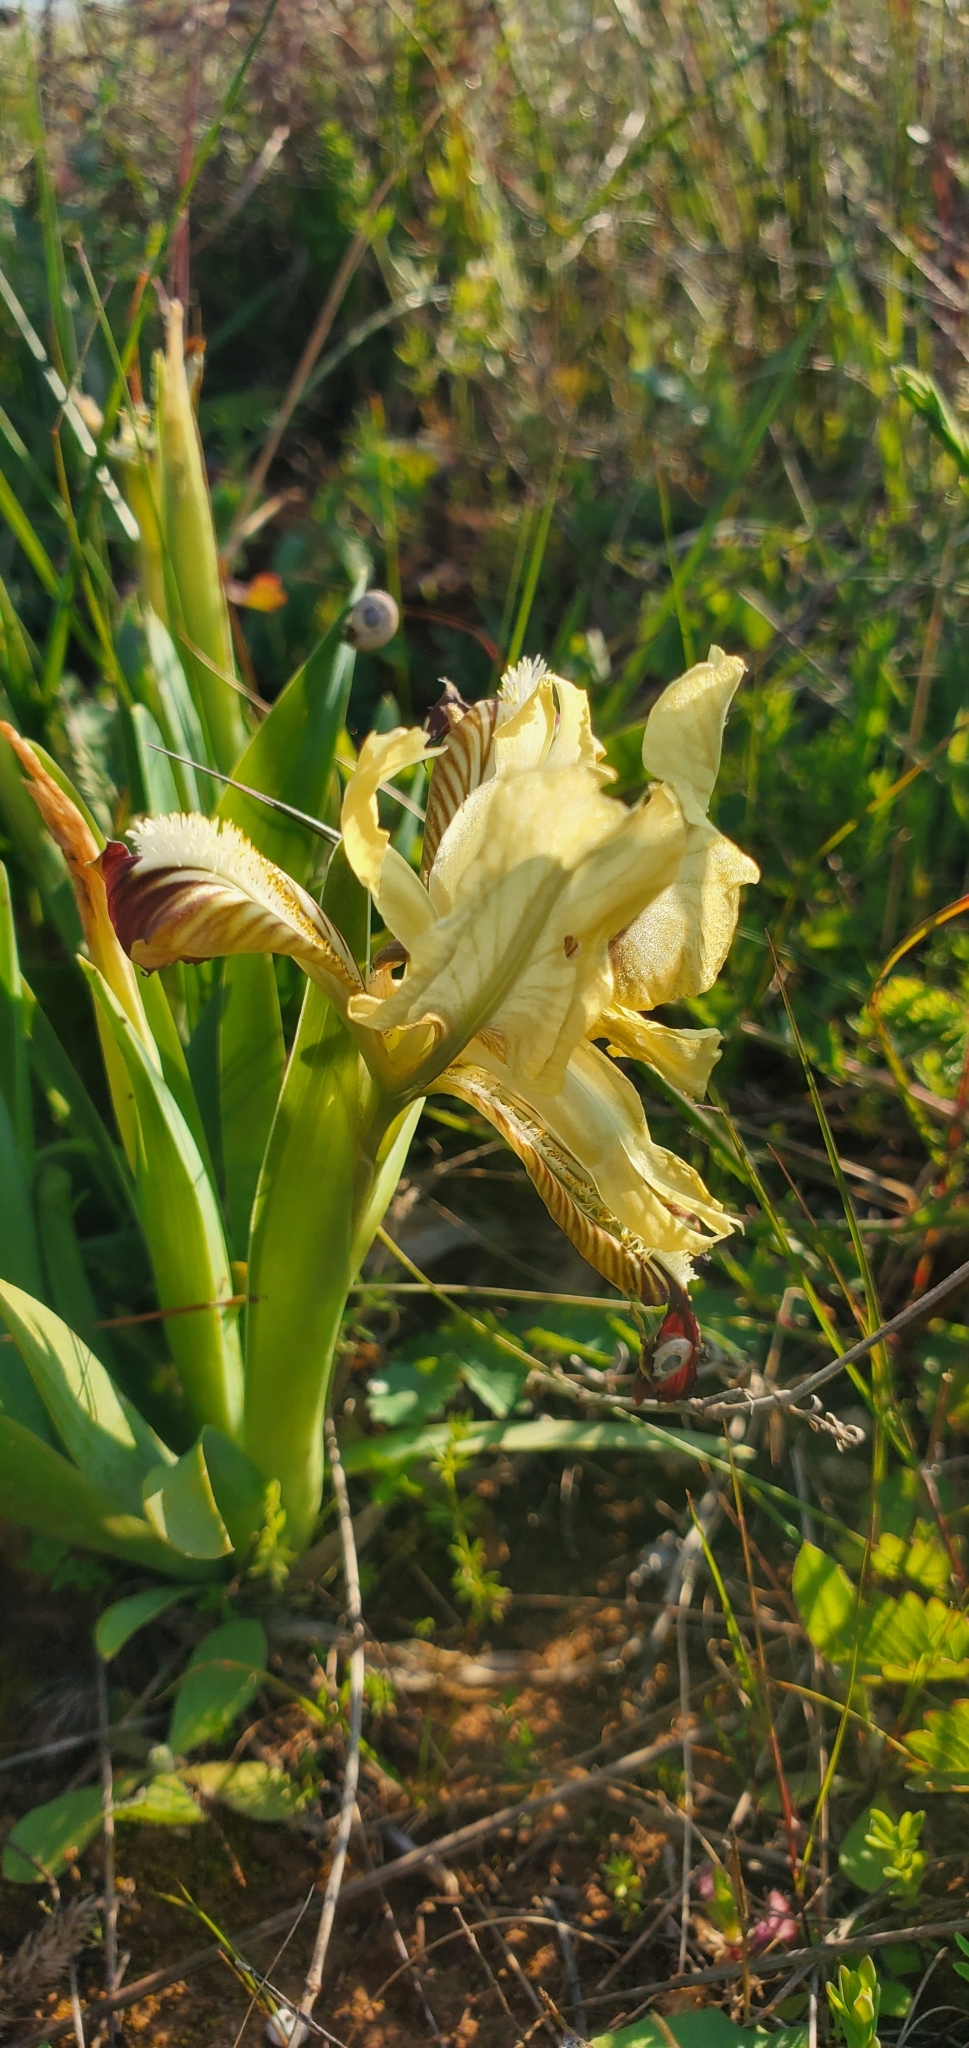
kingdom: Plantae
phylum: Tracheophyta
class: Liliopsida
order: Asparagales
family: Iridaceae
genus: Iris
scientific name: Iris pseudopumila
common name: Southern dwarf iris
